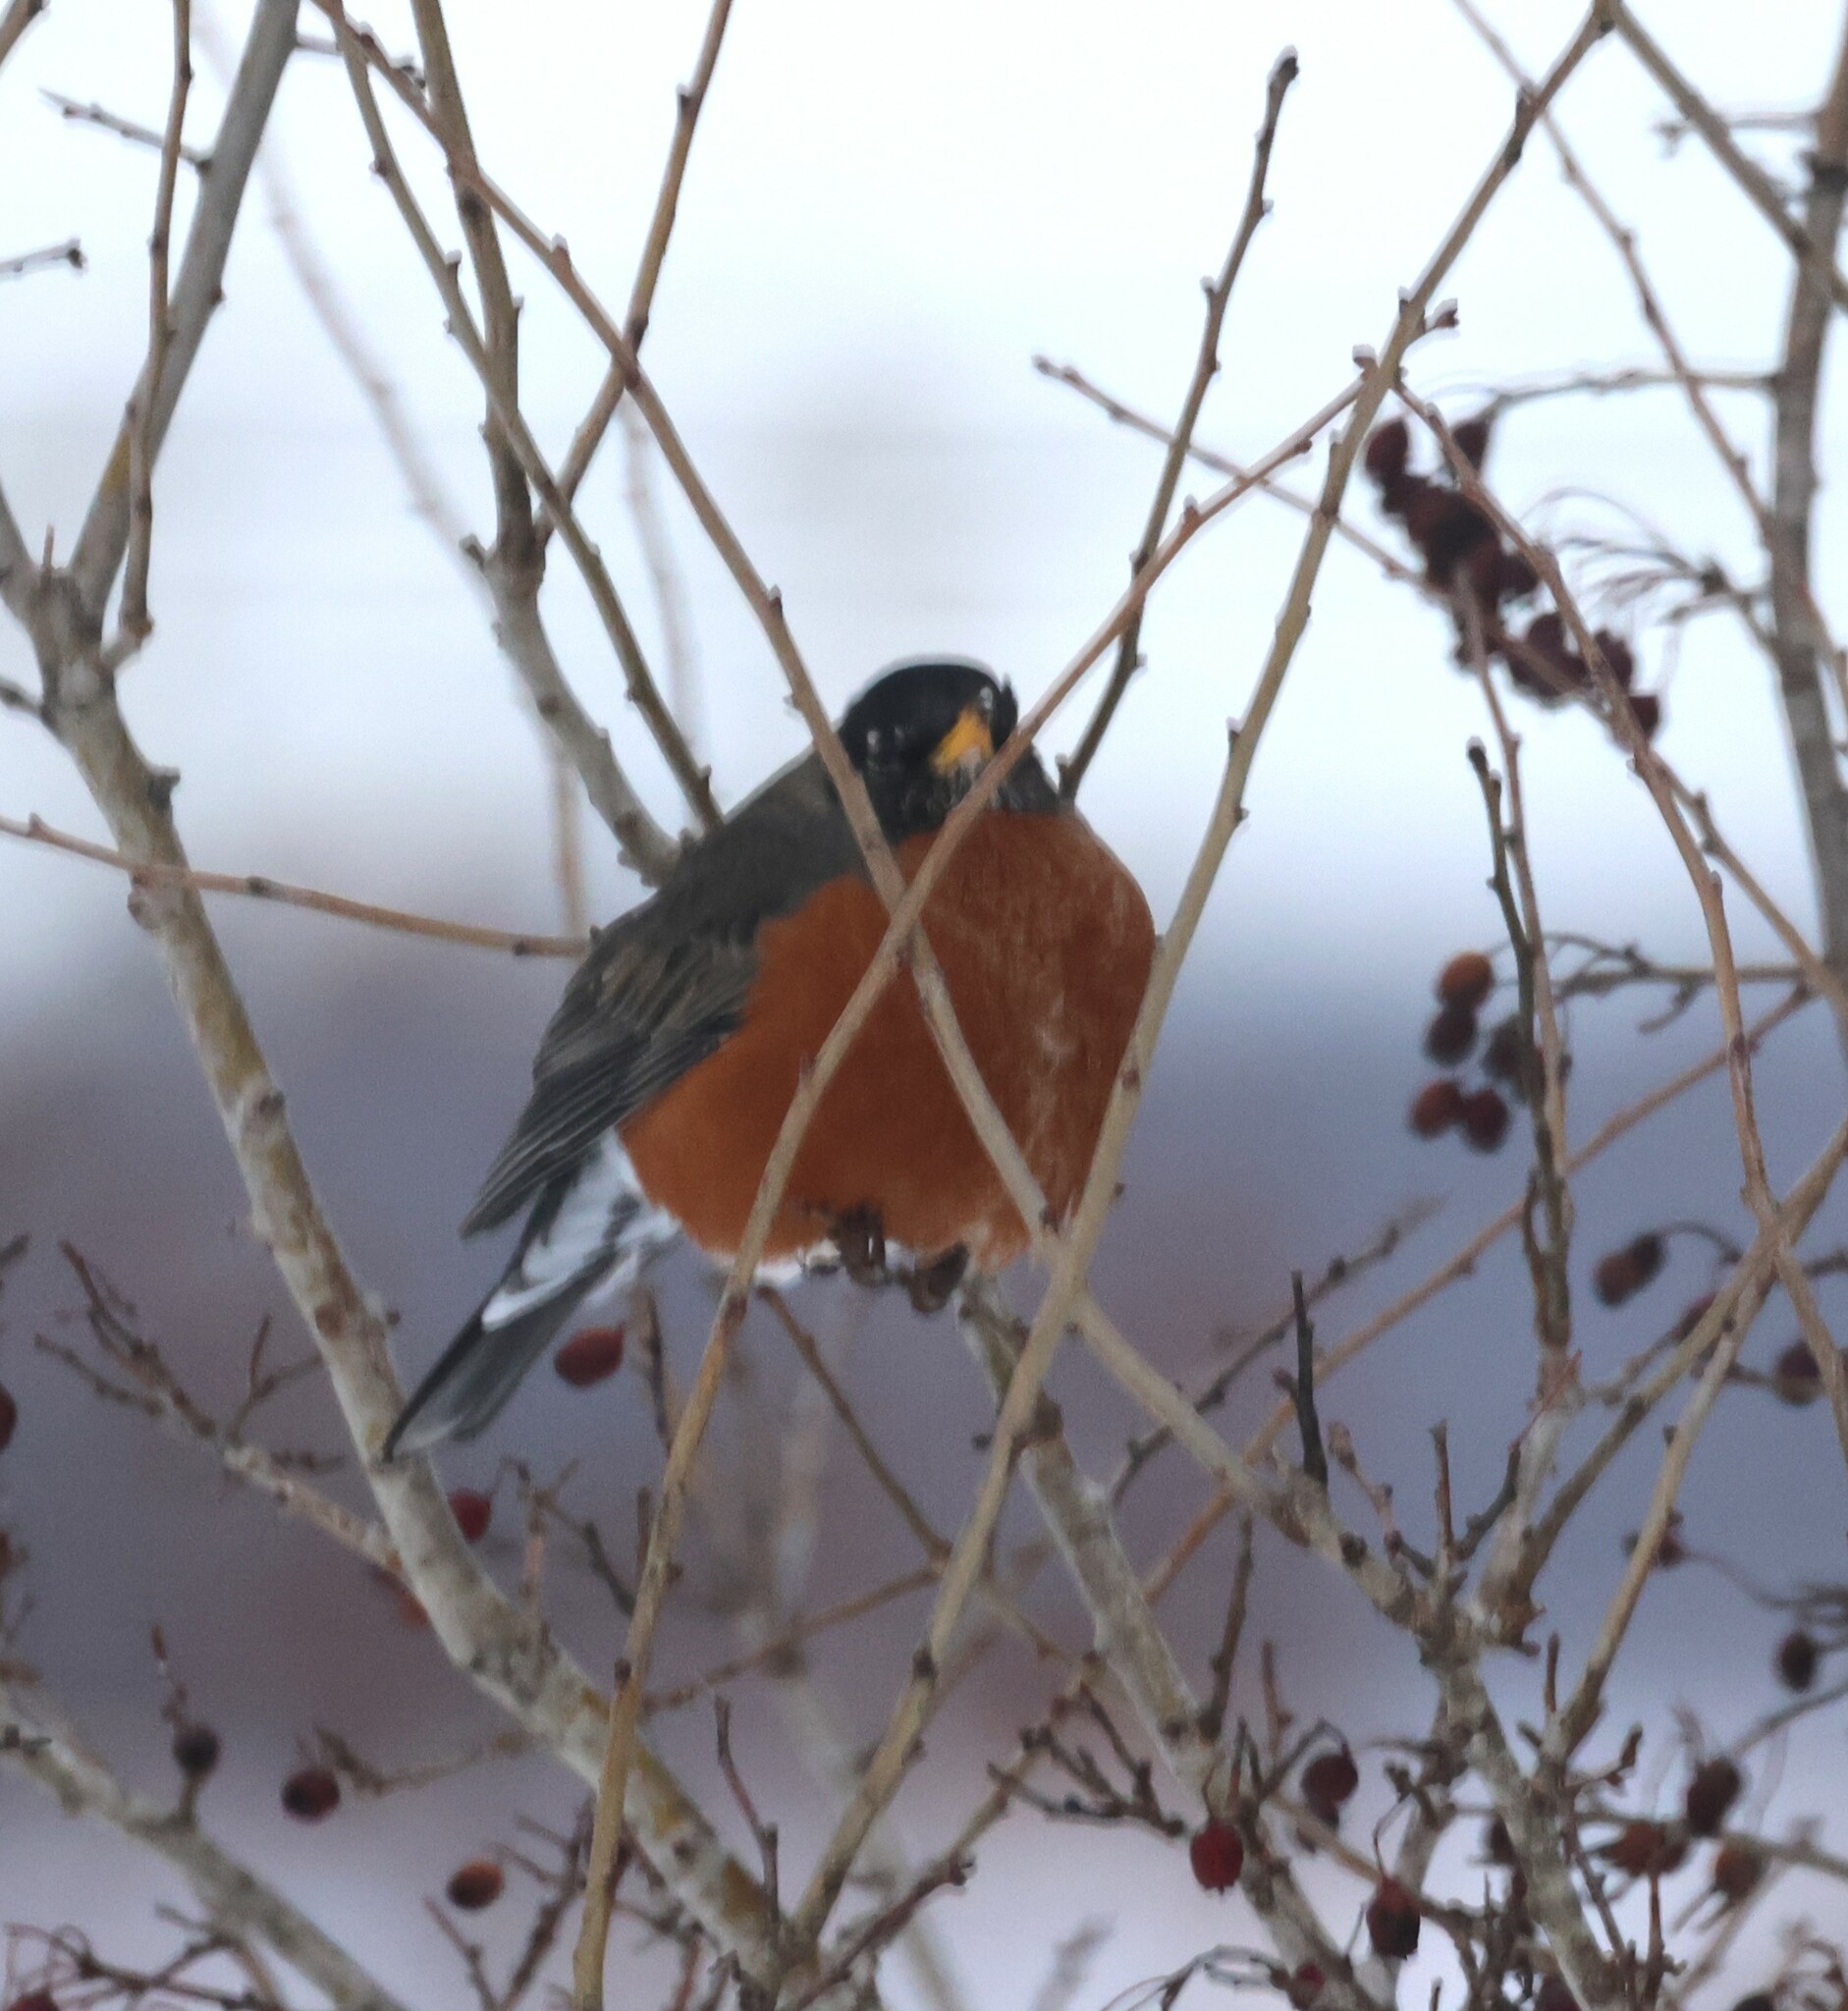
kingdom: Animalia
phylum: Chordata
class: Aves
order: Passeriformes
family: Turdidae
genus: Turdus
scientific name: Turdus migratorius
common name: American robin
